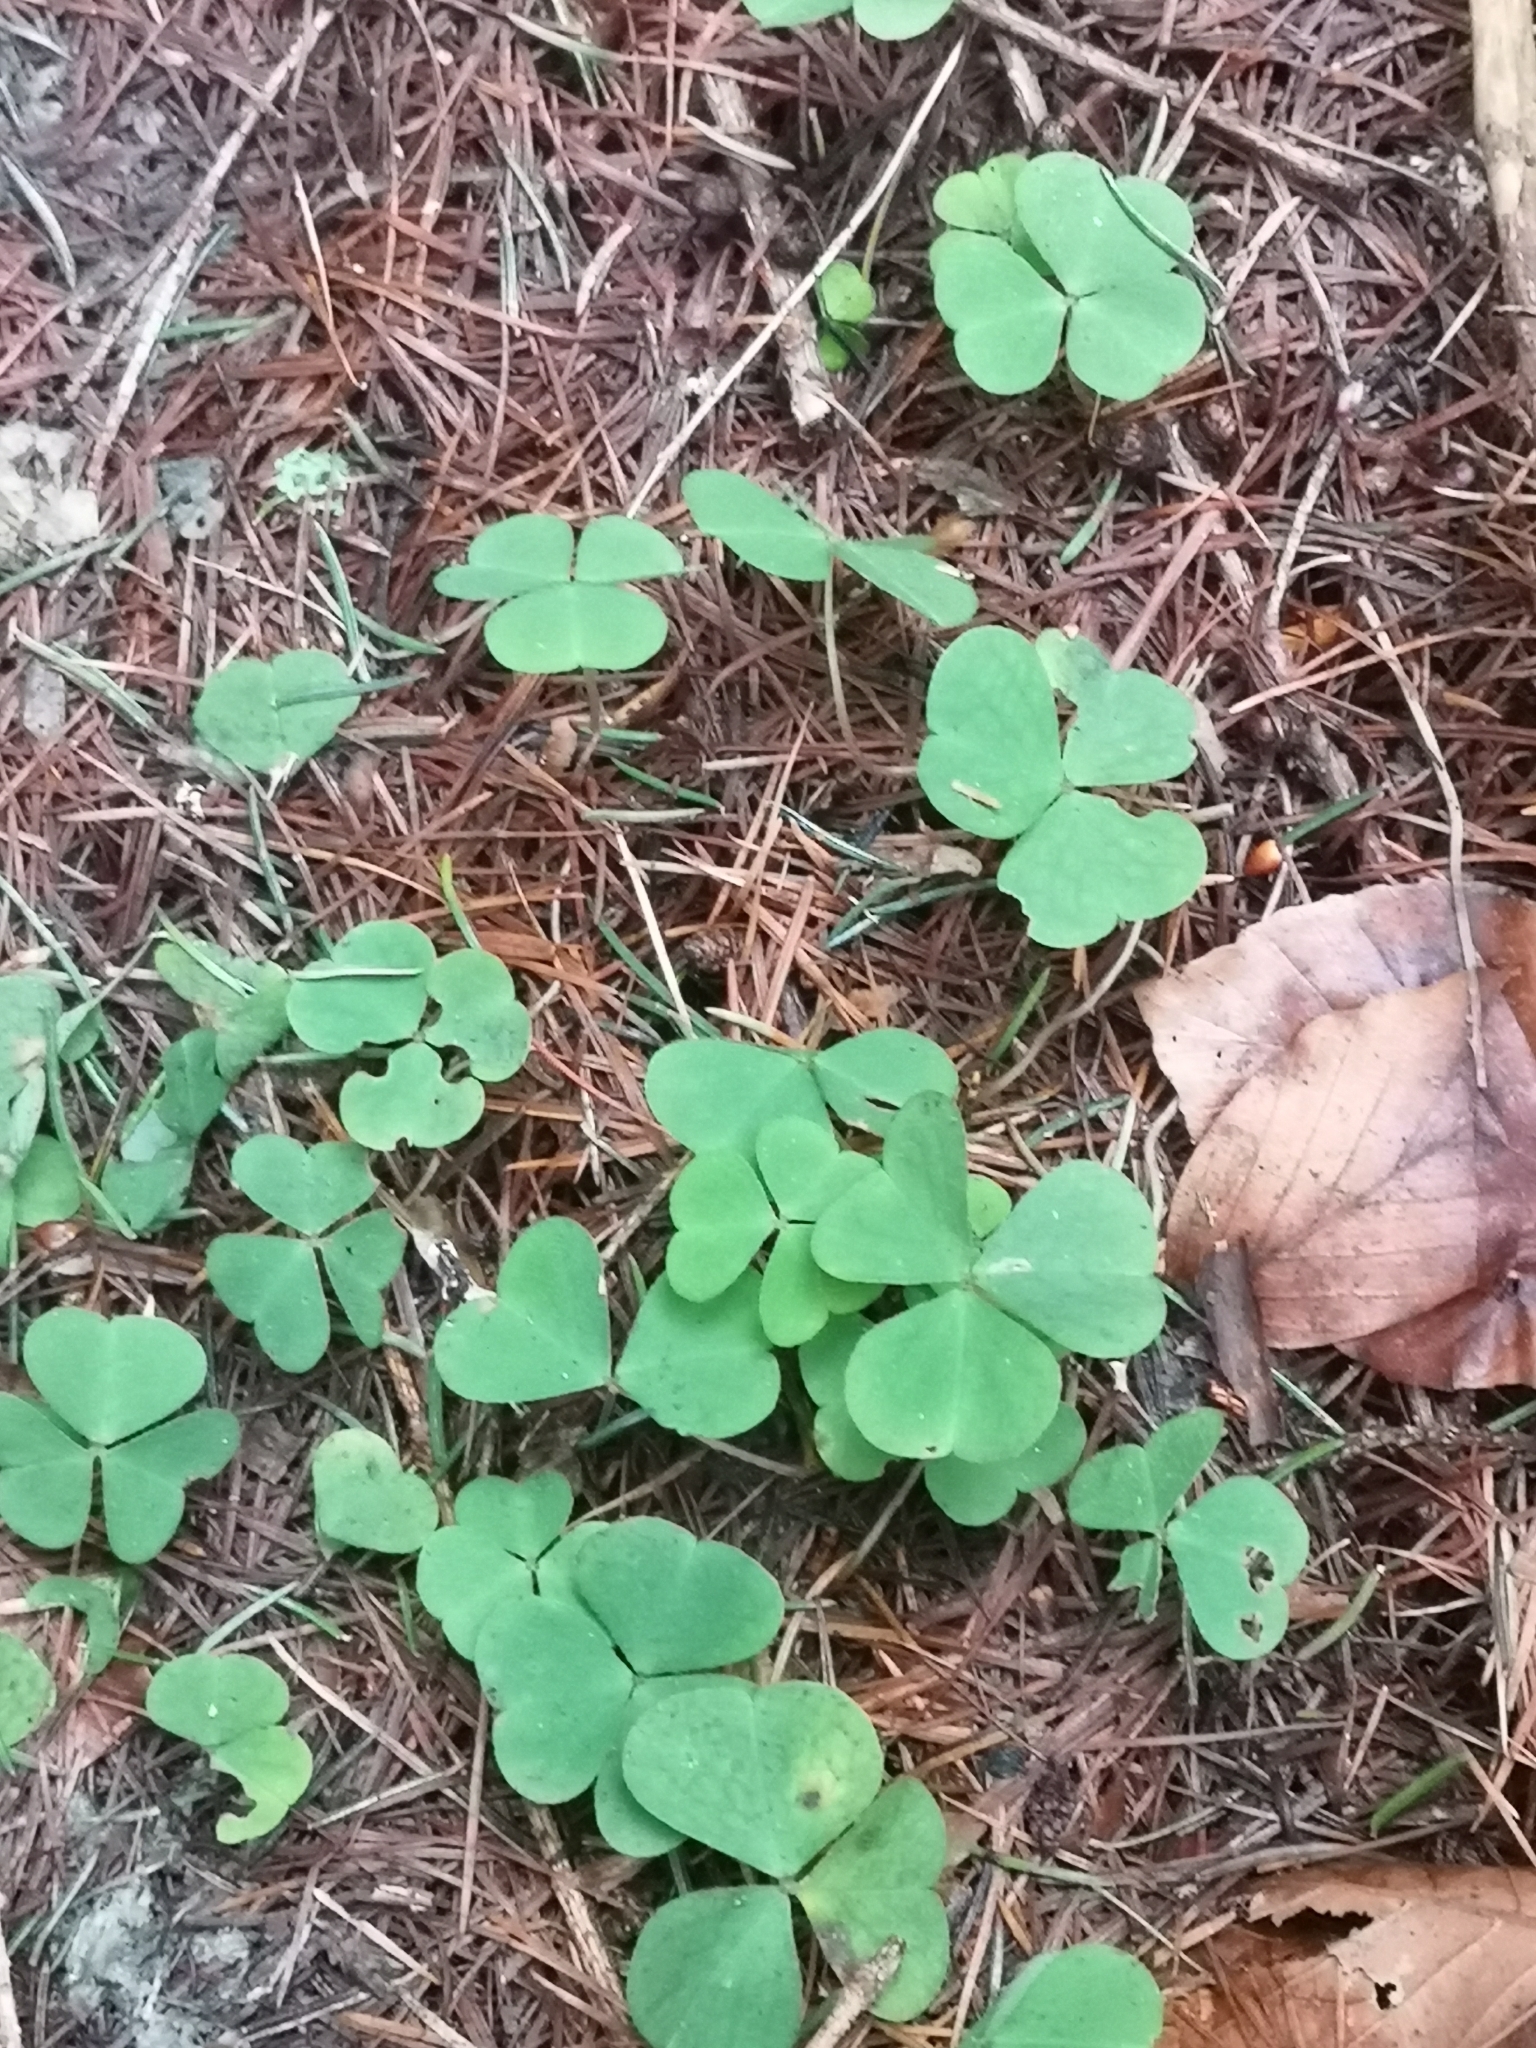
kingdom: Plantae
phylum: Tracheophyta
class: Magnoliopsida
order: Oxalidales
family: Oxalidaceae
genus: Oxalis
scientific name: Oxalis acetosella
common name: Wood-sorrel
